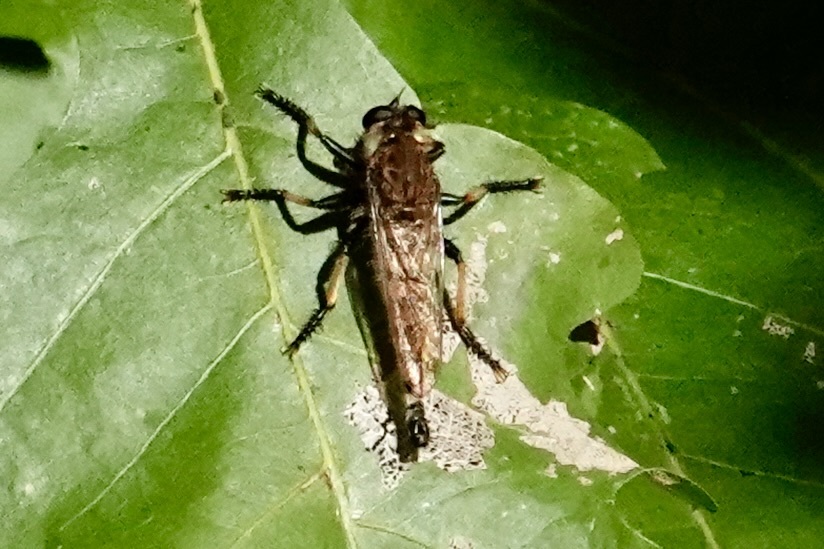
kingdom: Animalia
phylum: Arthropoda
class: Insecta
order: Diptera
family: Asilidae
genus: Promachus
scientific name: Promachus rufipes
